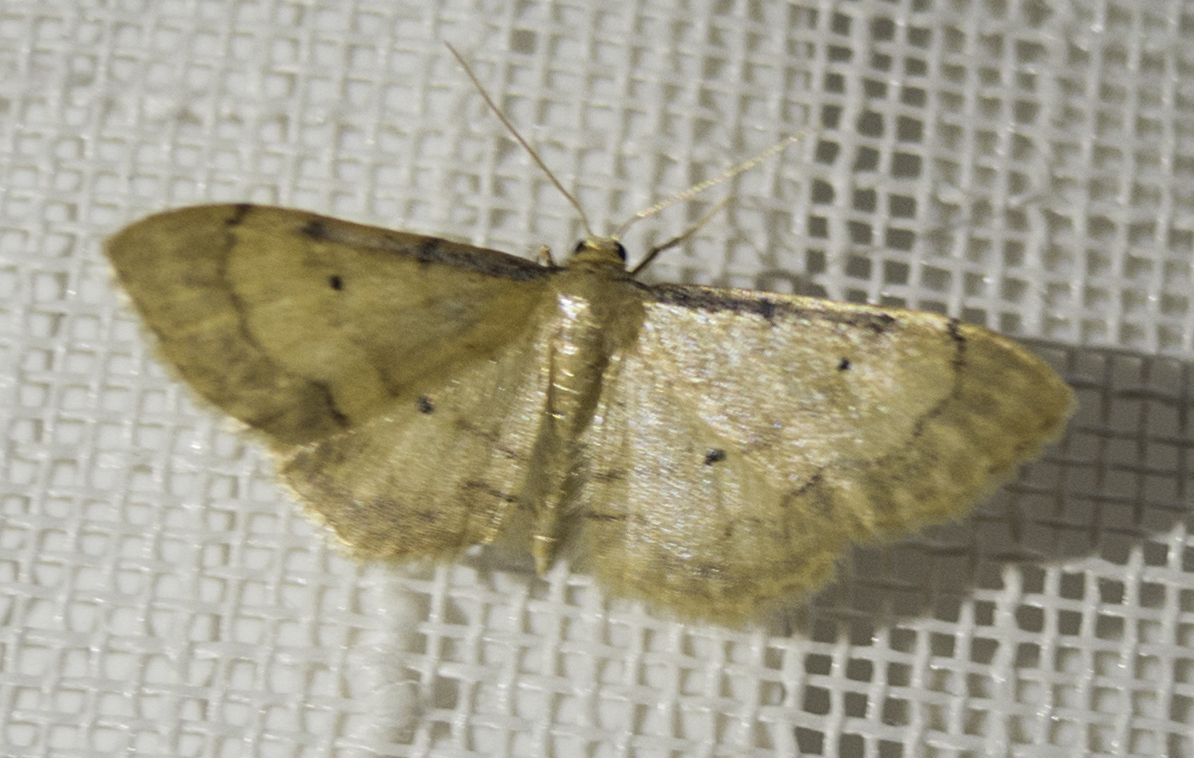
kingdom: Animalia
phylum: Arthropoda
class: Insecta
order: Lepidoptera
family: Geometridae
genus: Idaea
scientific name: Idaea politaria
